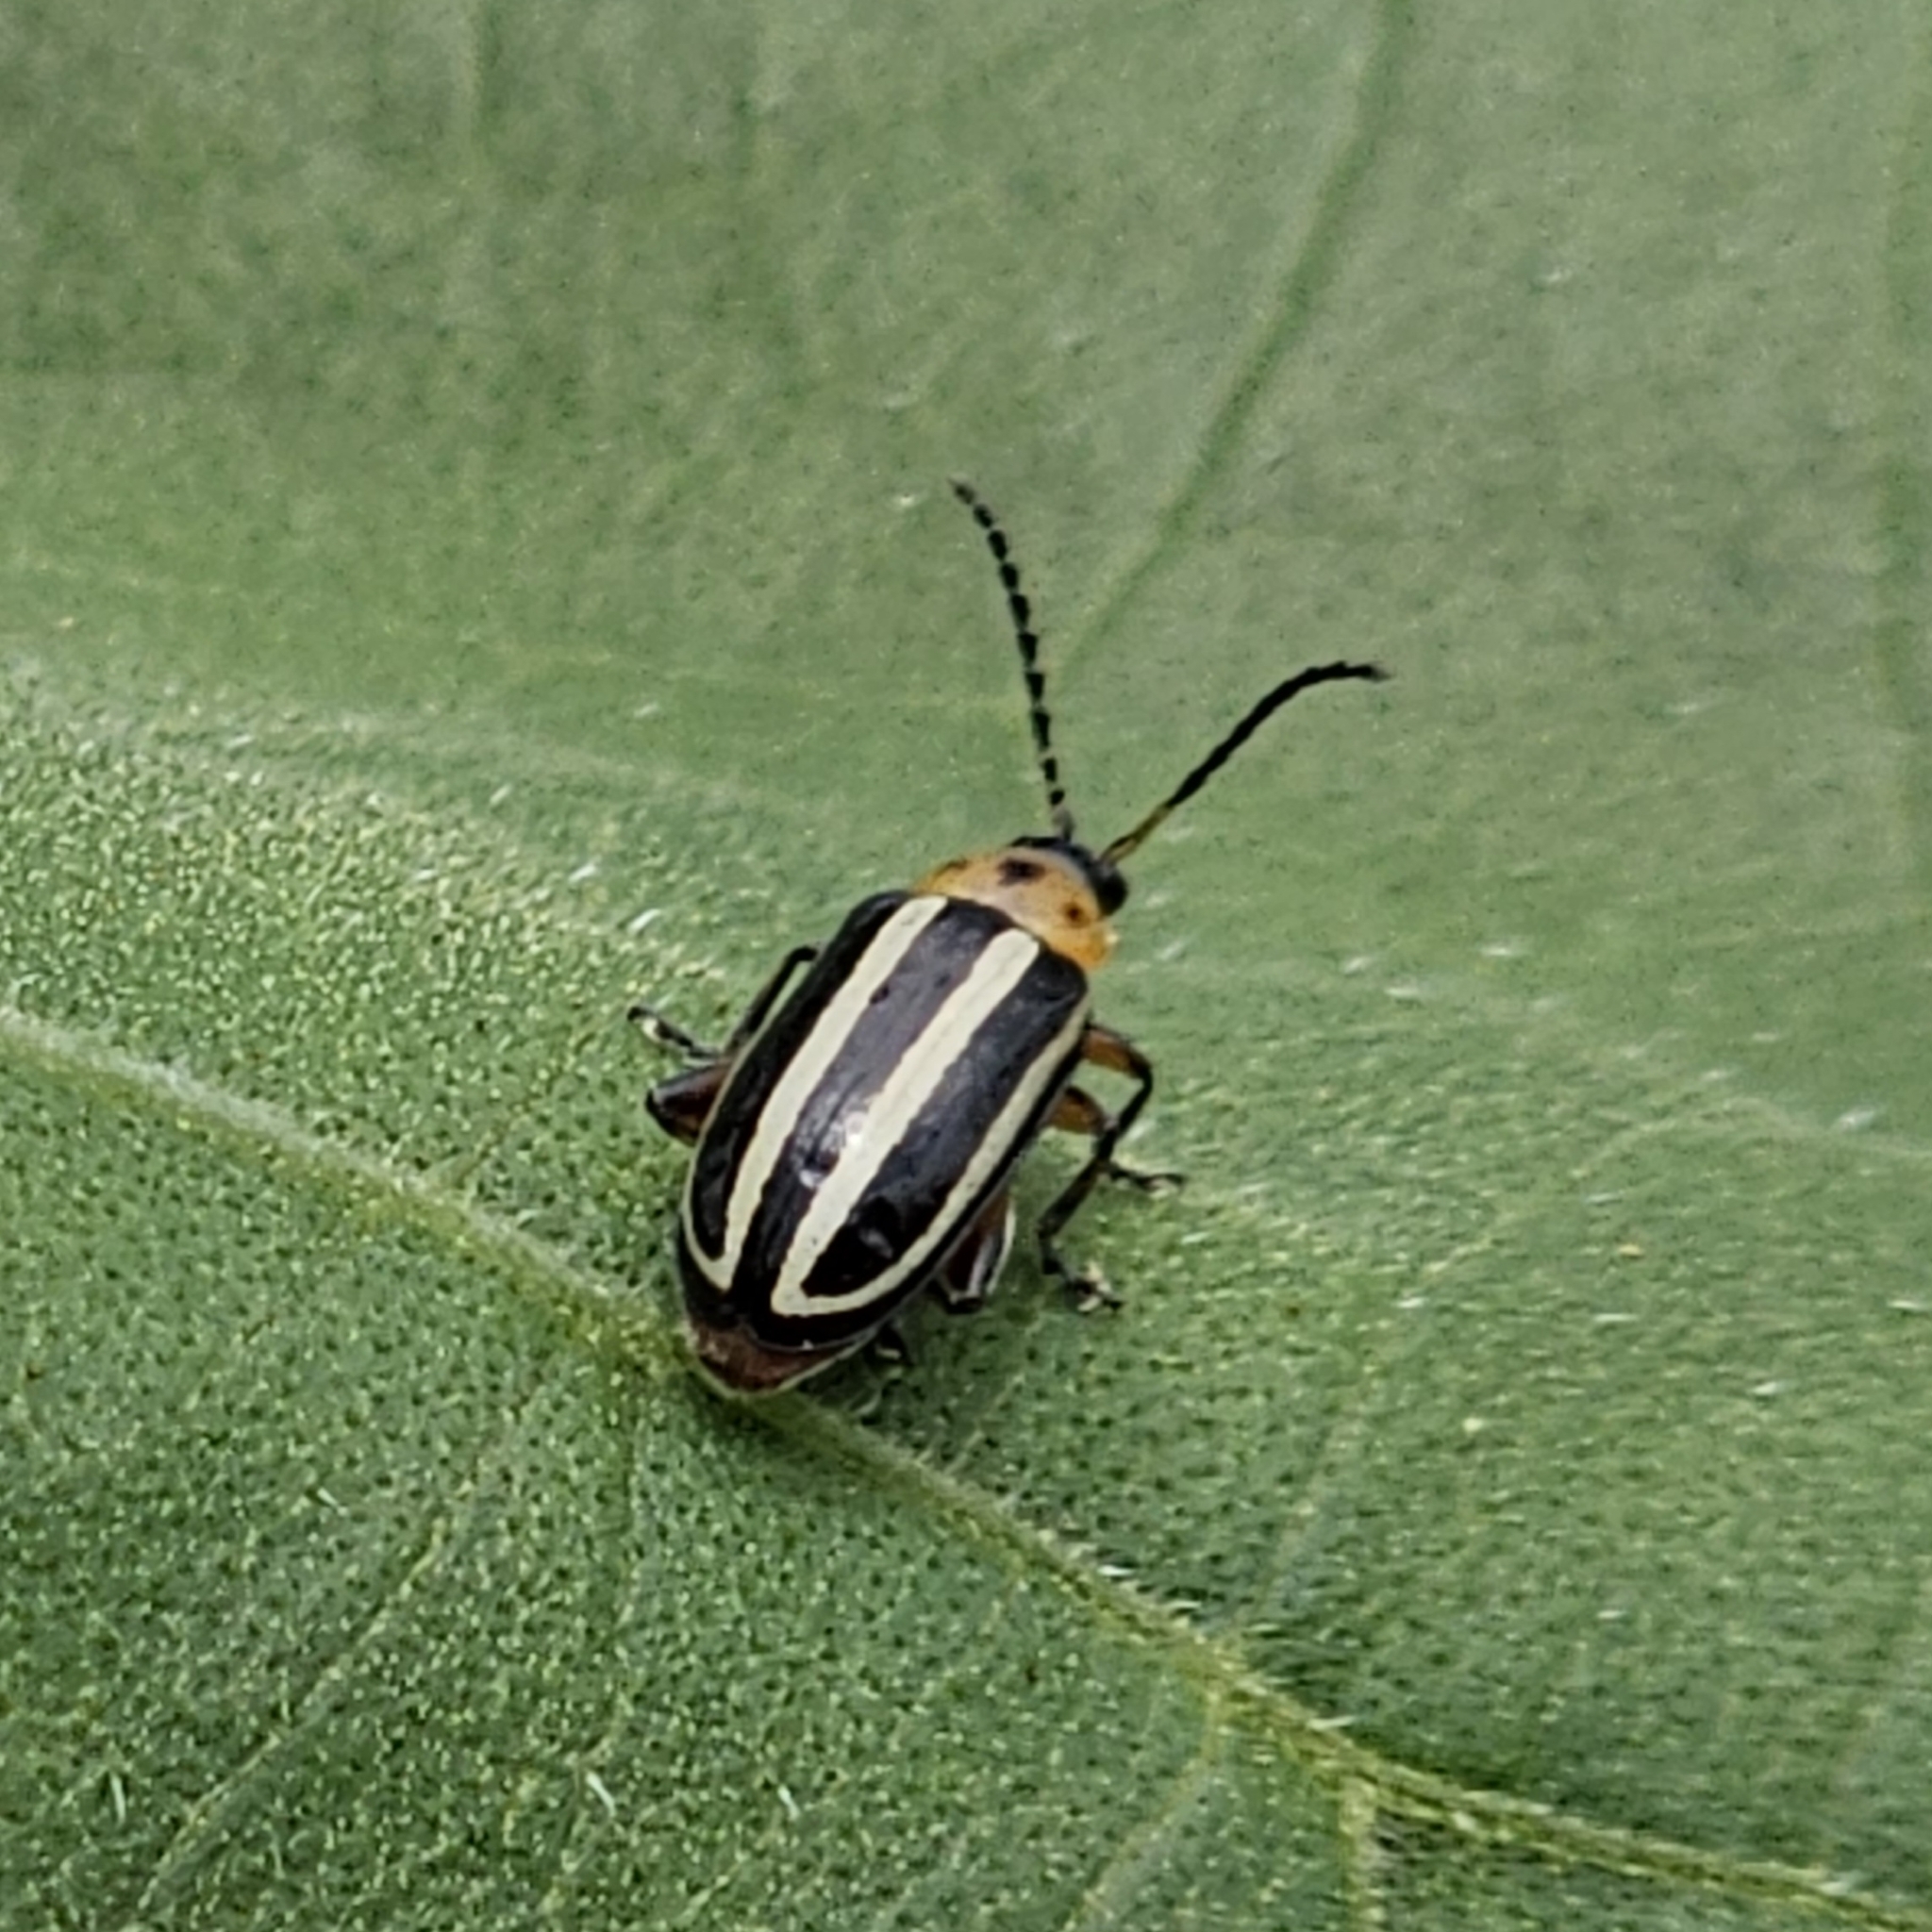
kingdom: Animalia
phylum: Arthropoda
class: Insecta
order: Coleoptera
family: Chrysomelidae
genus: Disonycha
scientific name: Disonycha glabrata
